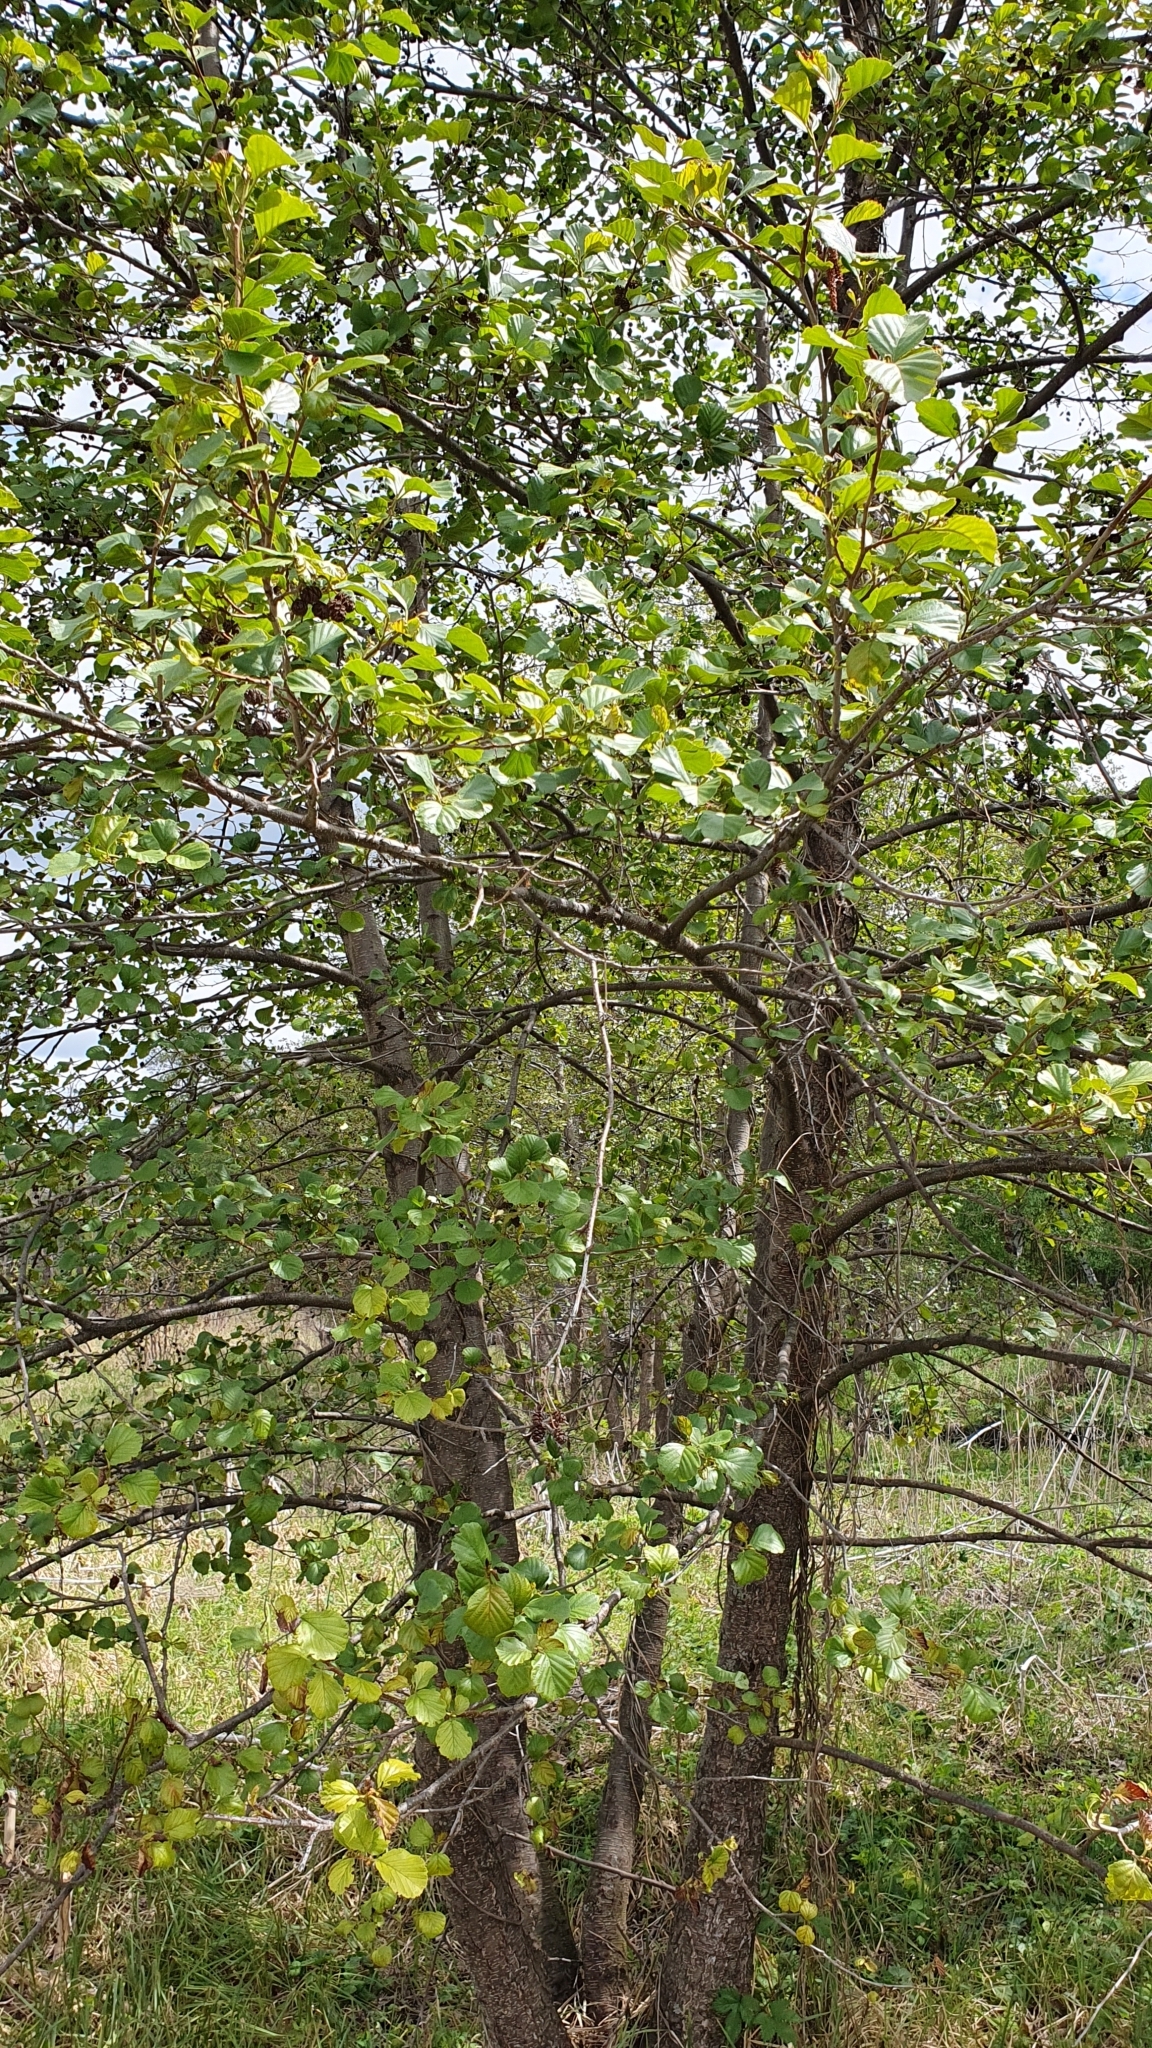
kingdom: Plantae
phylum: Tracheophyta
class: Magnoliopsida
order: Fagales
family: Betulaceae
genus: Alnus
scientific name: Alnus glutinosa
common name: Black alder
